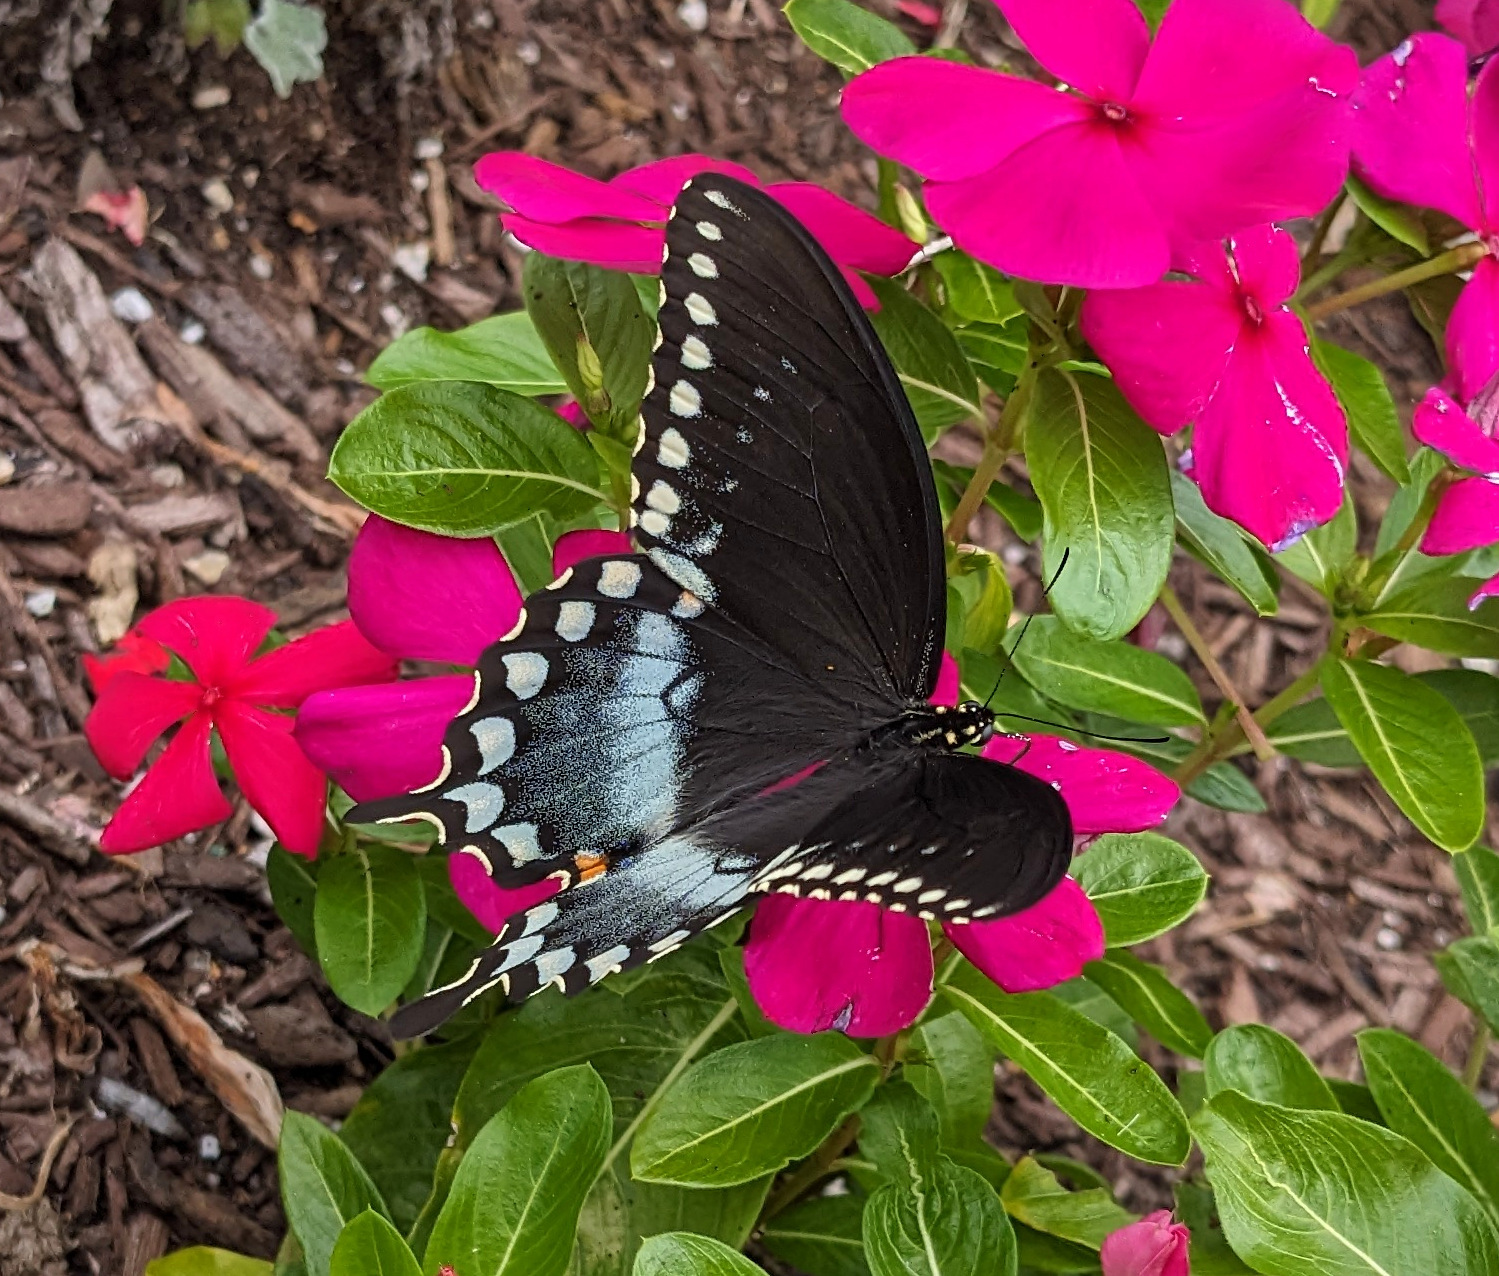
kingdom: Animalia
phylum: Arthropoda
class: Insecta
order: Lepidoptera
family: Papilionidae
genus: Papilio
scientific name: Papilio troilus
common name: Spicebush swallowtail
